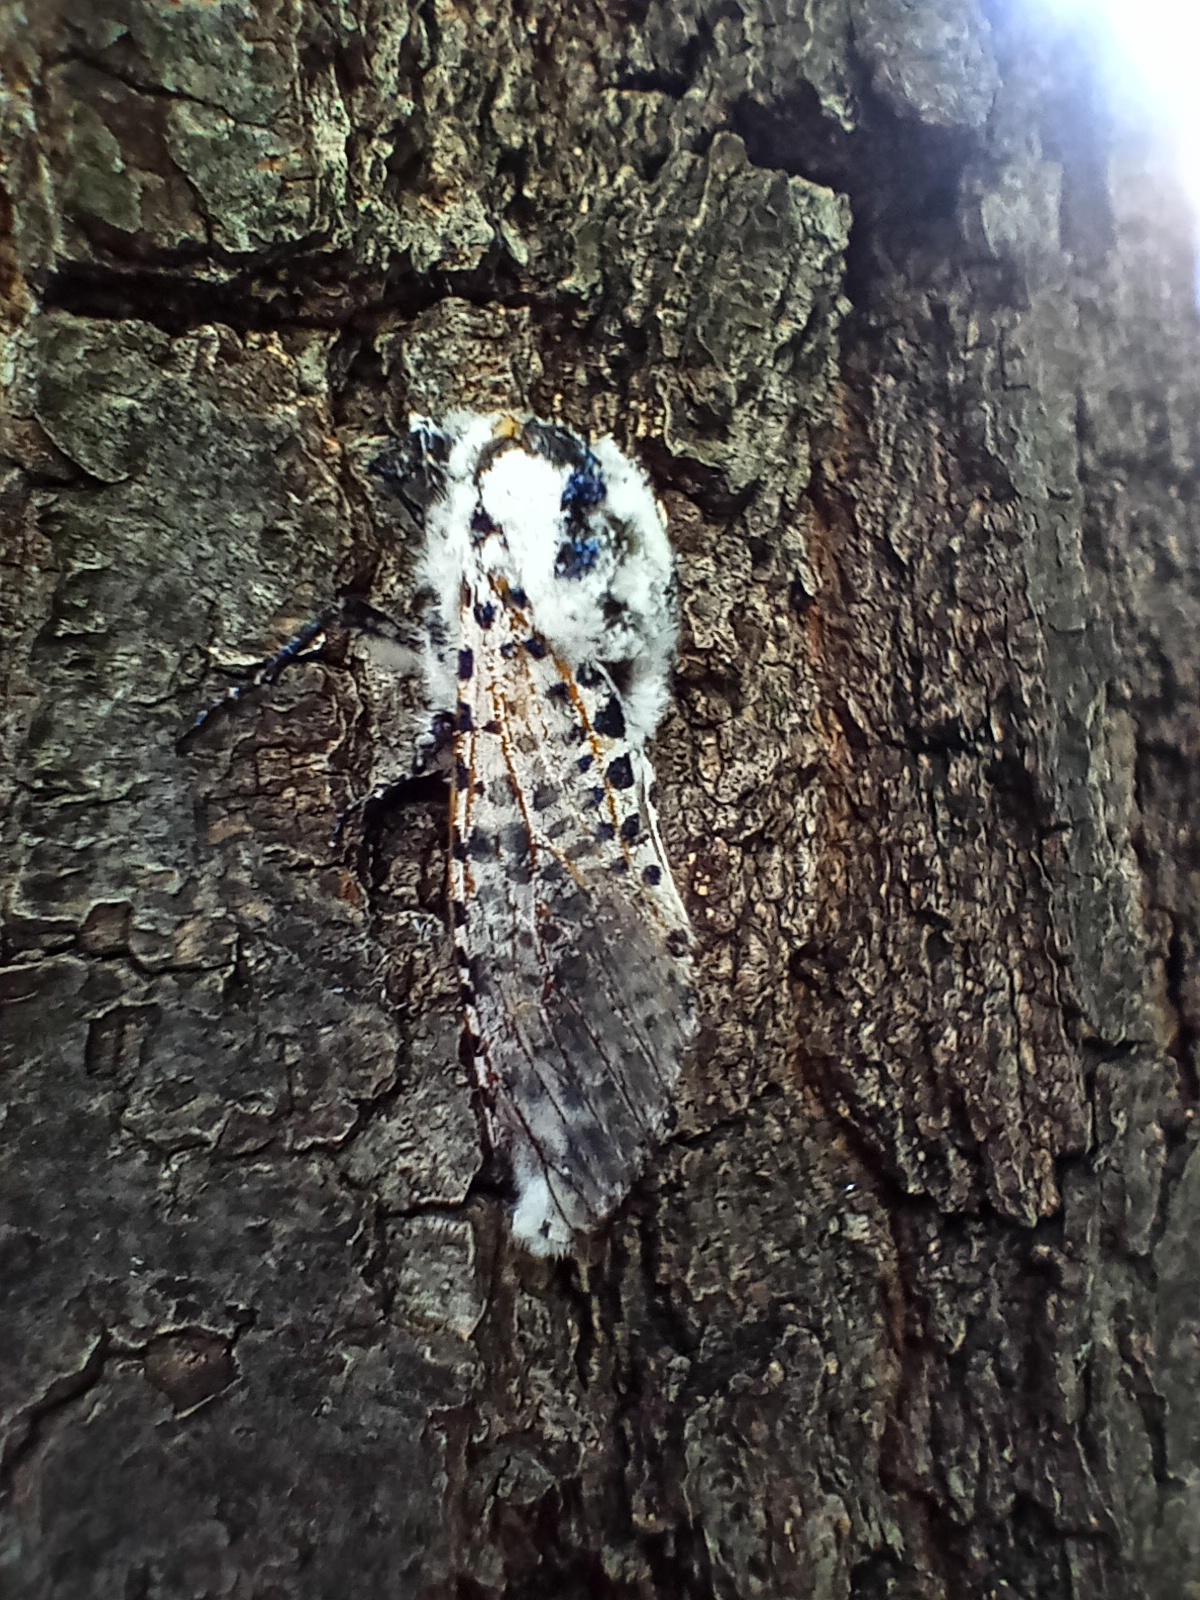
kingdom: Animalia
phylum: Arthropoda
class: Insecta
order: Lepidoptera
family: Cossidae
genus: Zeuzera
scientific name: Zeuzera pyrina
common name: Leopard moth
